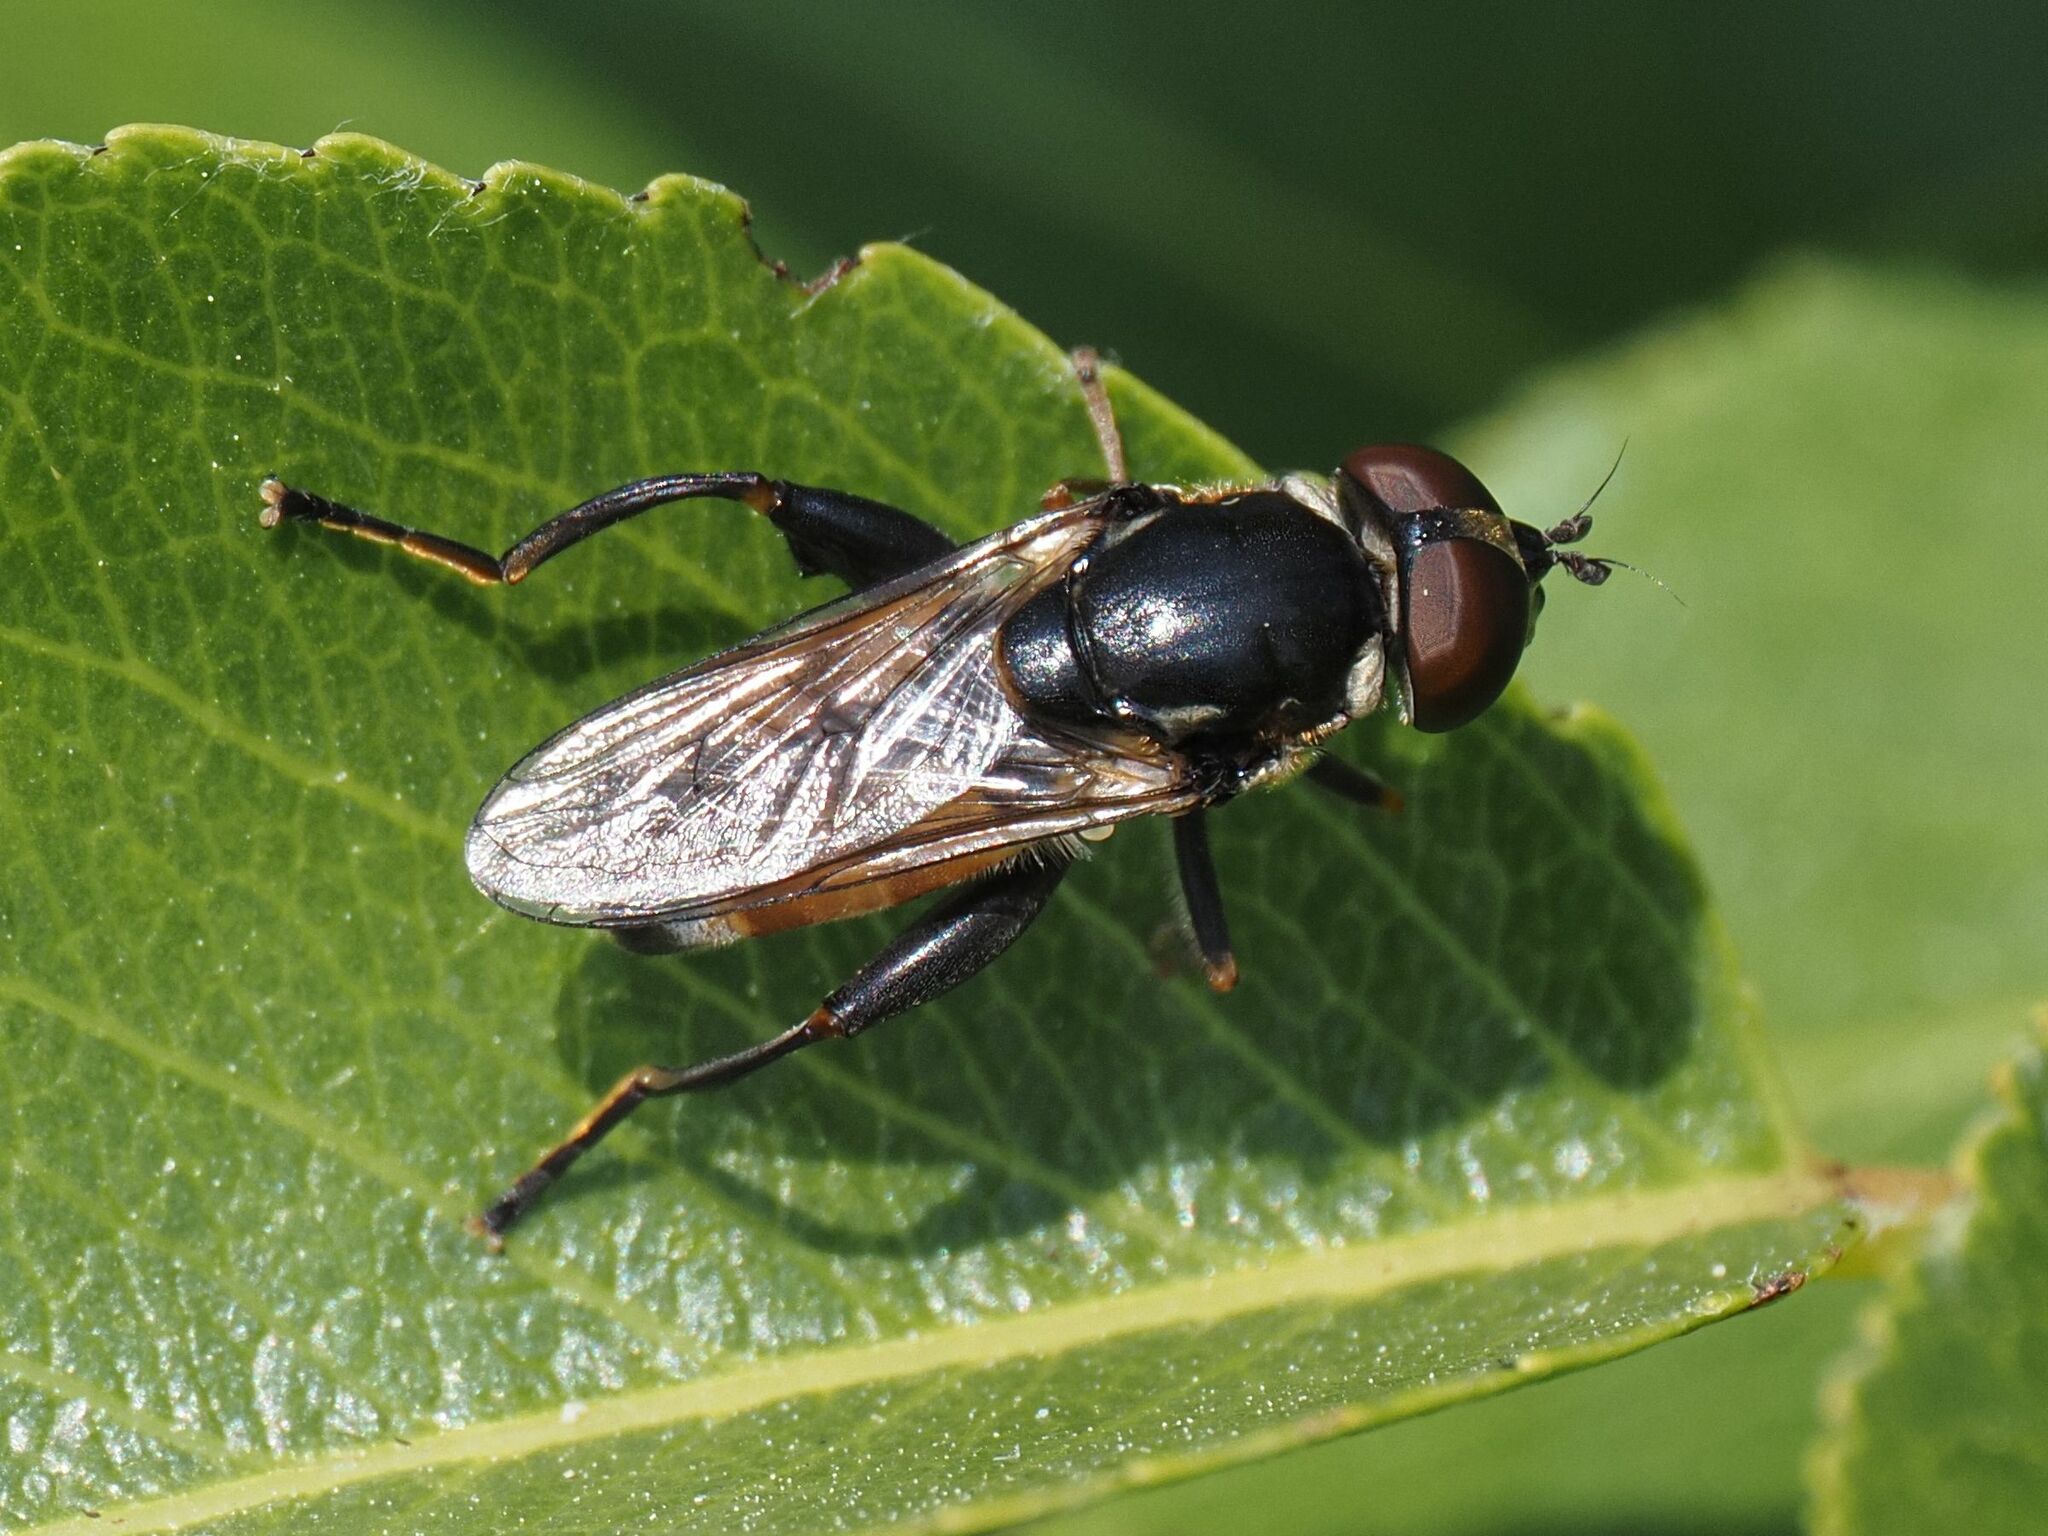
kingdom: Animalia
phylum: Arthropoda
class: Insecta
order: Diptera
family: Syrphidae
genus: Tropidia
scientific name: Tropidia scita
